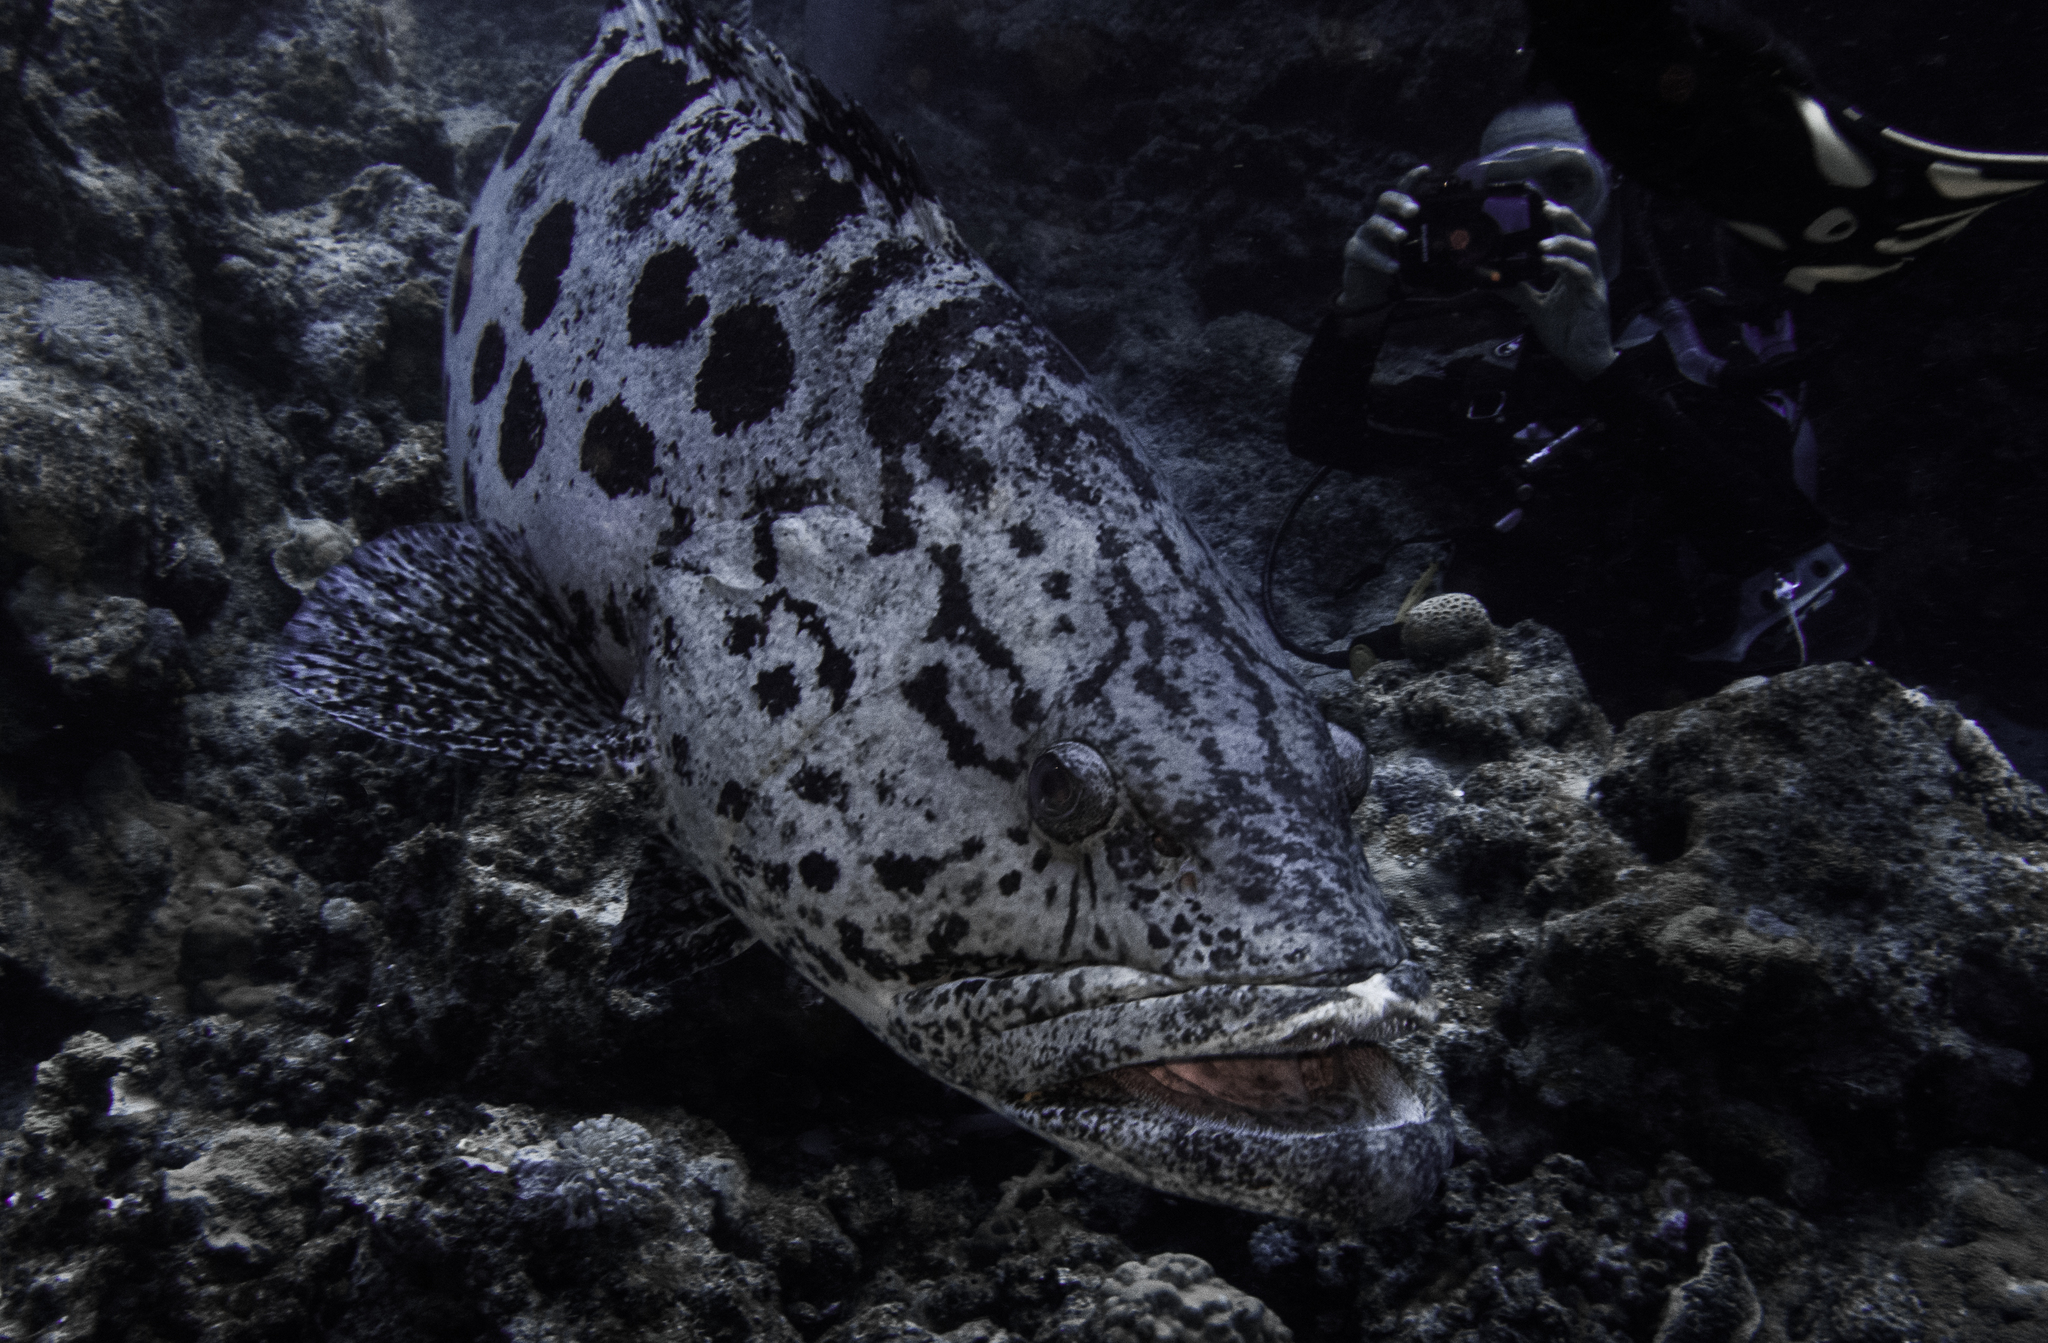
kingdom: Animalia
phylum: Chordata
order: Perciformes
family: Serranidae
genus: Epinephelus
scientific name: Epinephelus tukula
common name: Potato cod
